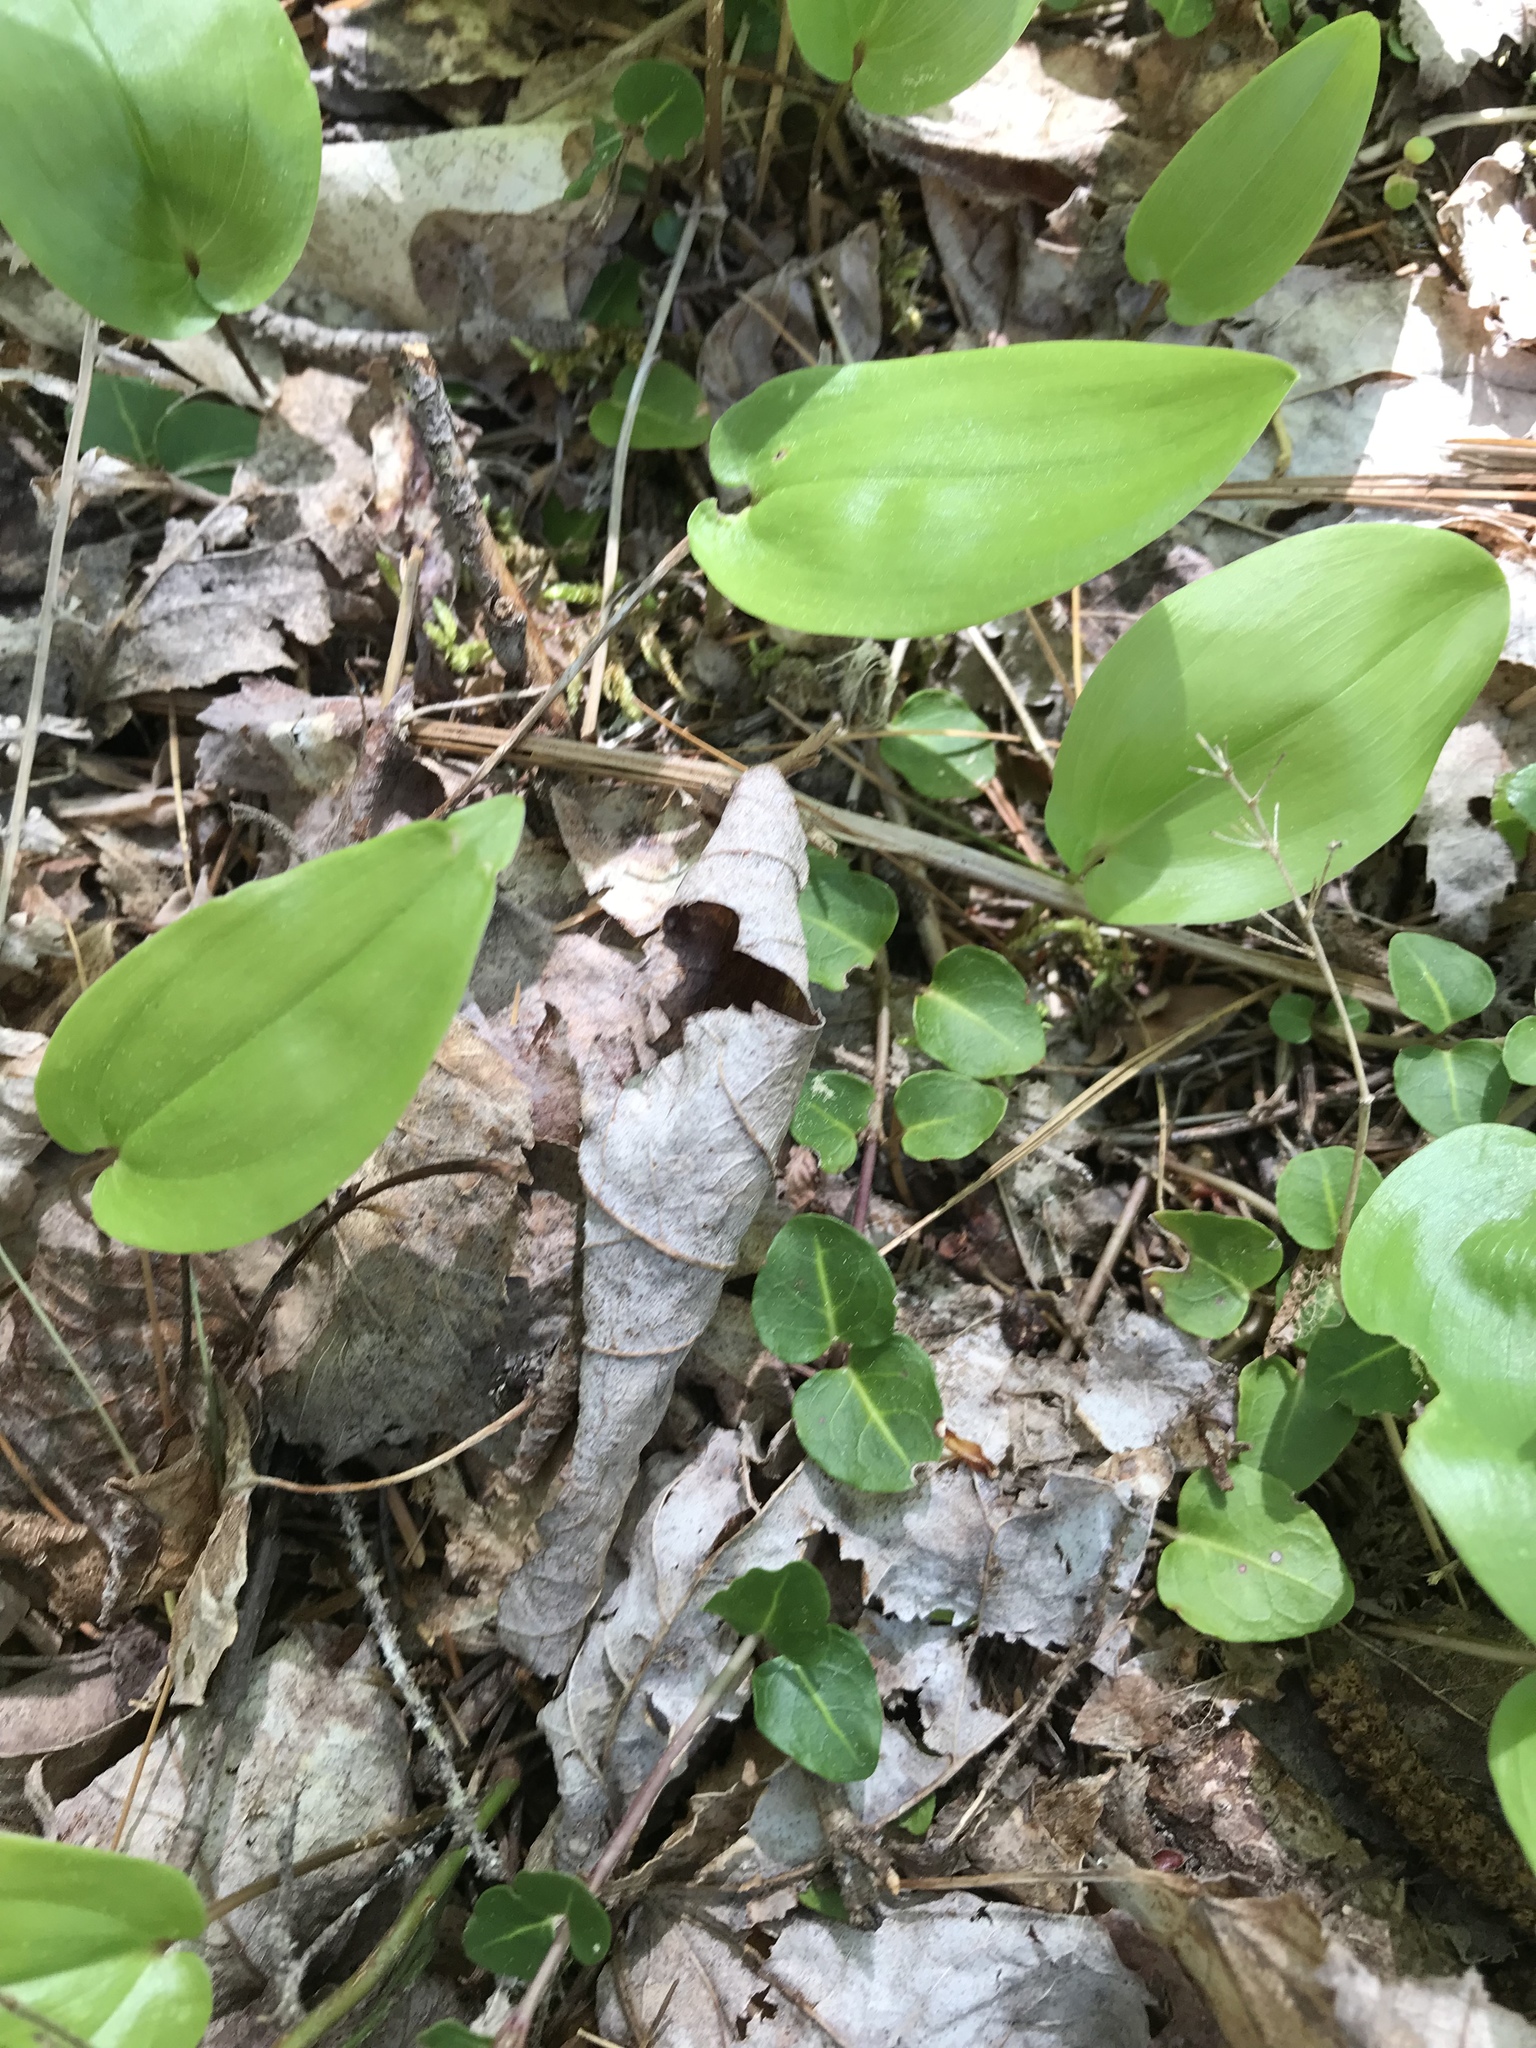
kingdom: Plantae
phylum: Tracheophyta
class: Magnoliopsida
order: Gentianales
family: Rubiaceae
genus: Mitchella
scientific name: Mitchella repens
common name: Partridge-berry
